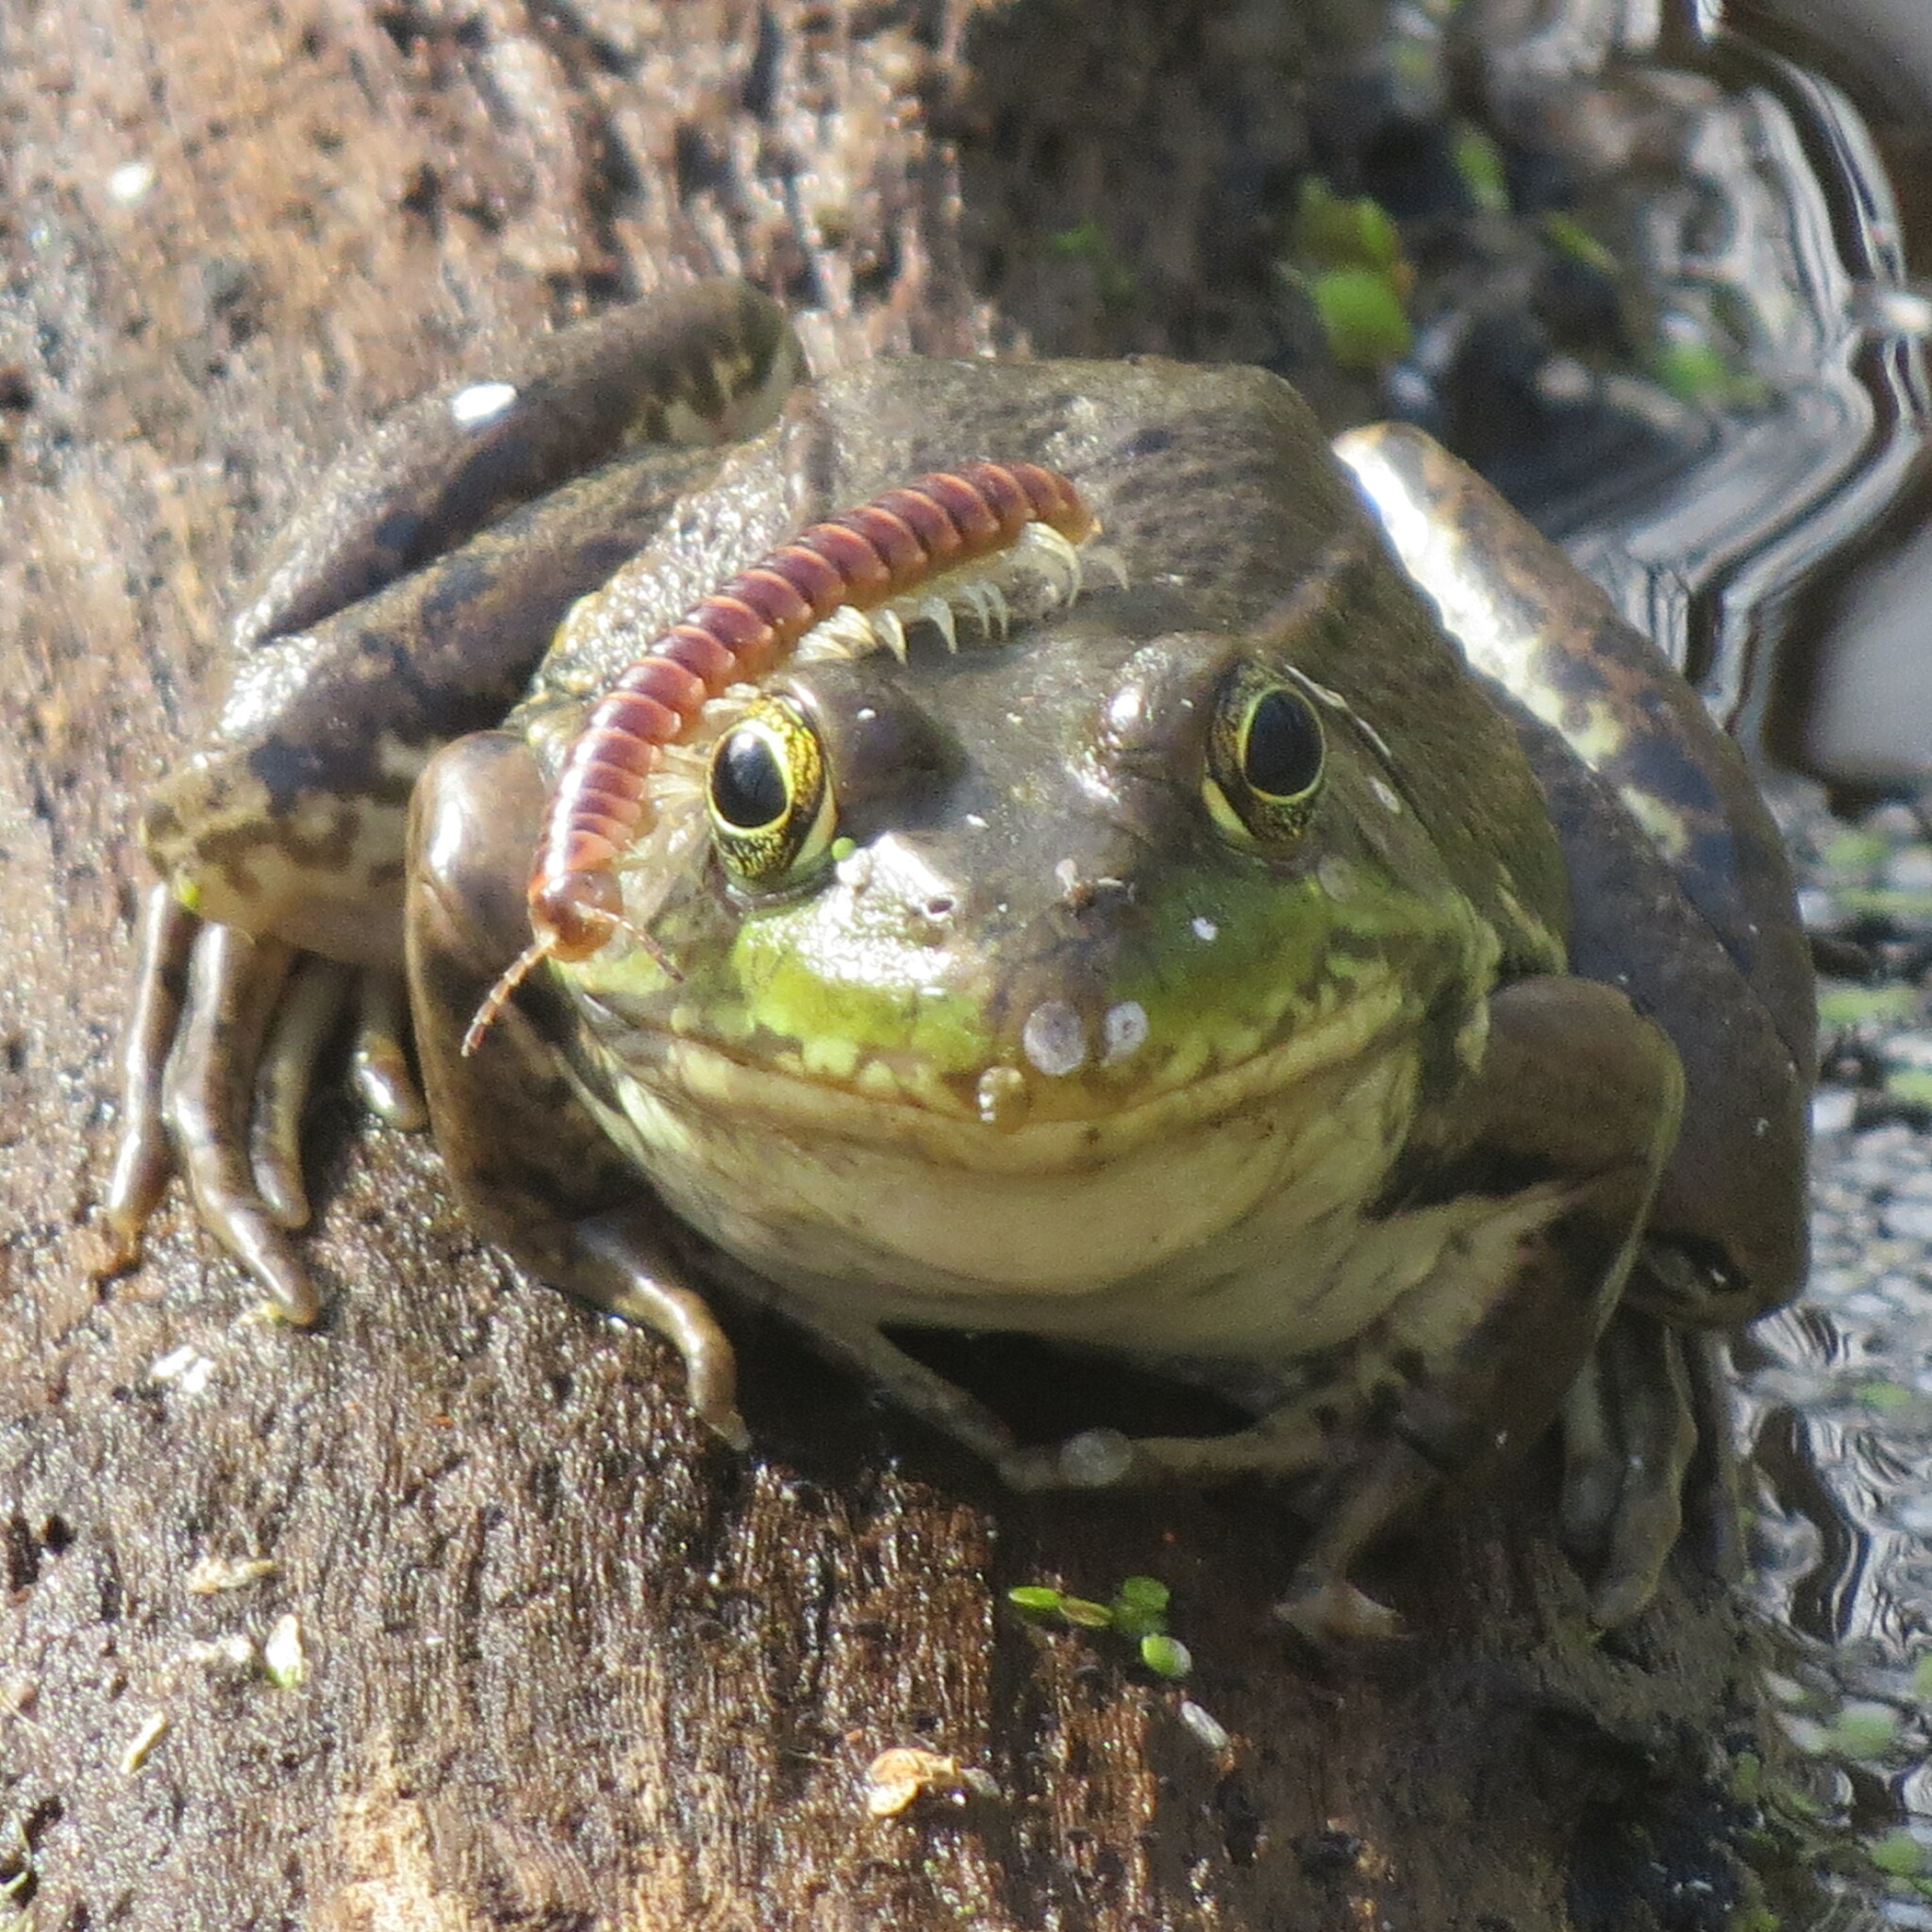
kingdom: Animalia
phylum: Chordata
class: Amphibia
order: Anura
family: Ranidae
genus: Lithobates
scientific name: Lithobates clamitans
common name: Green frog
